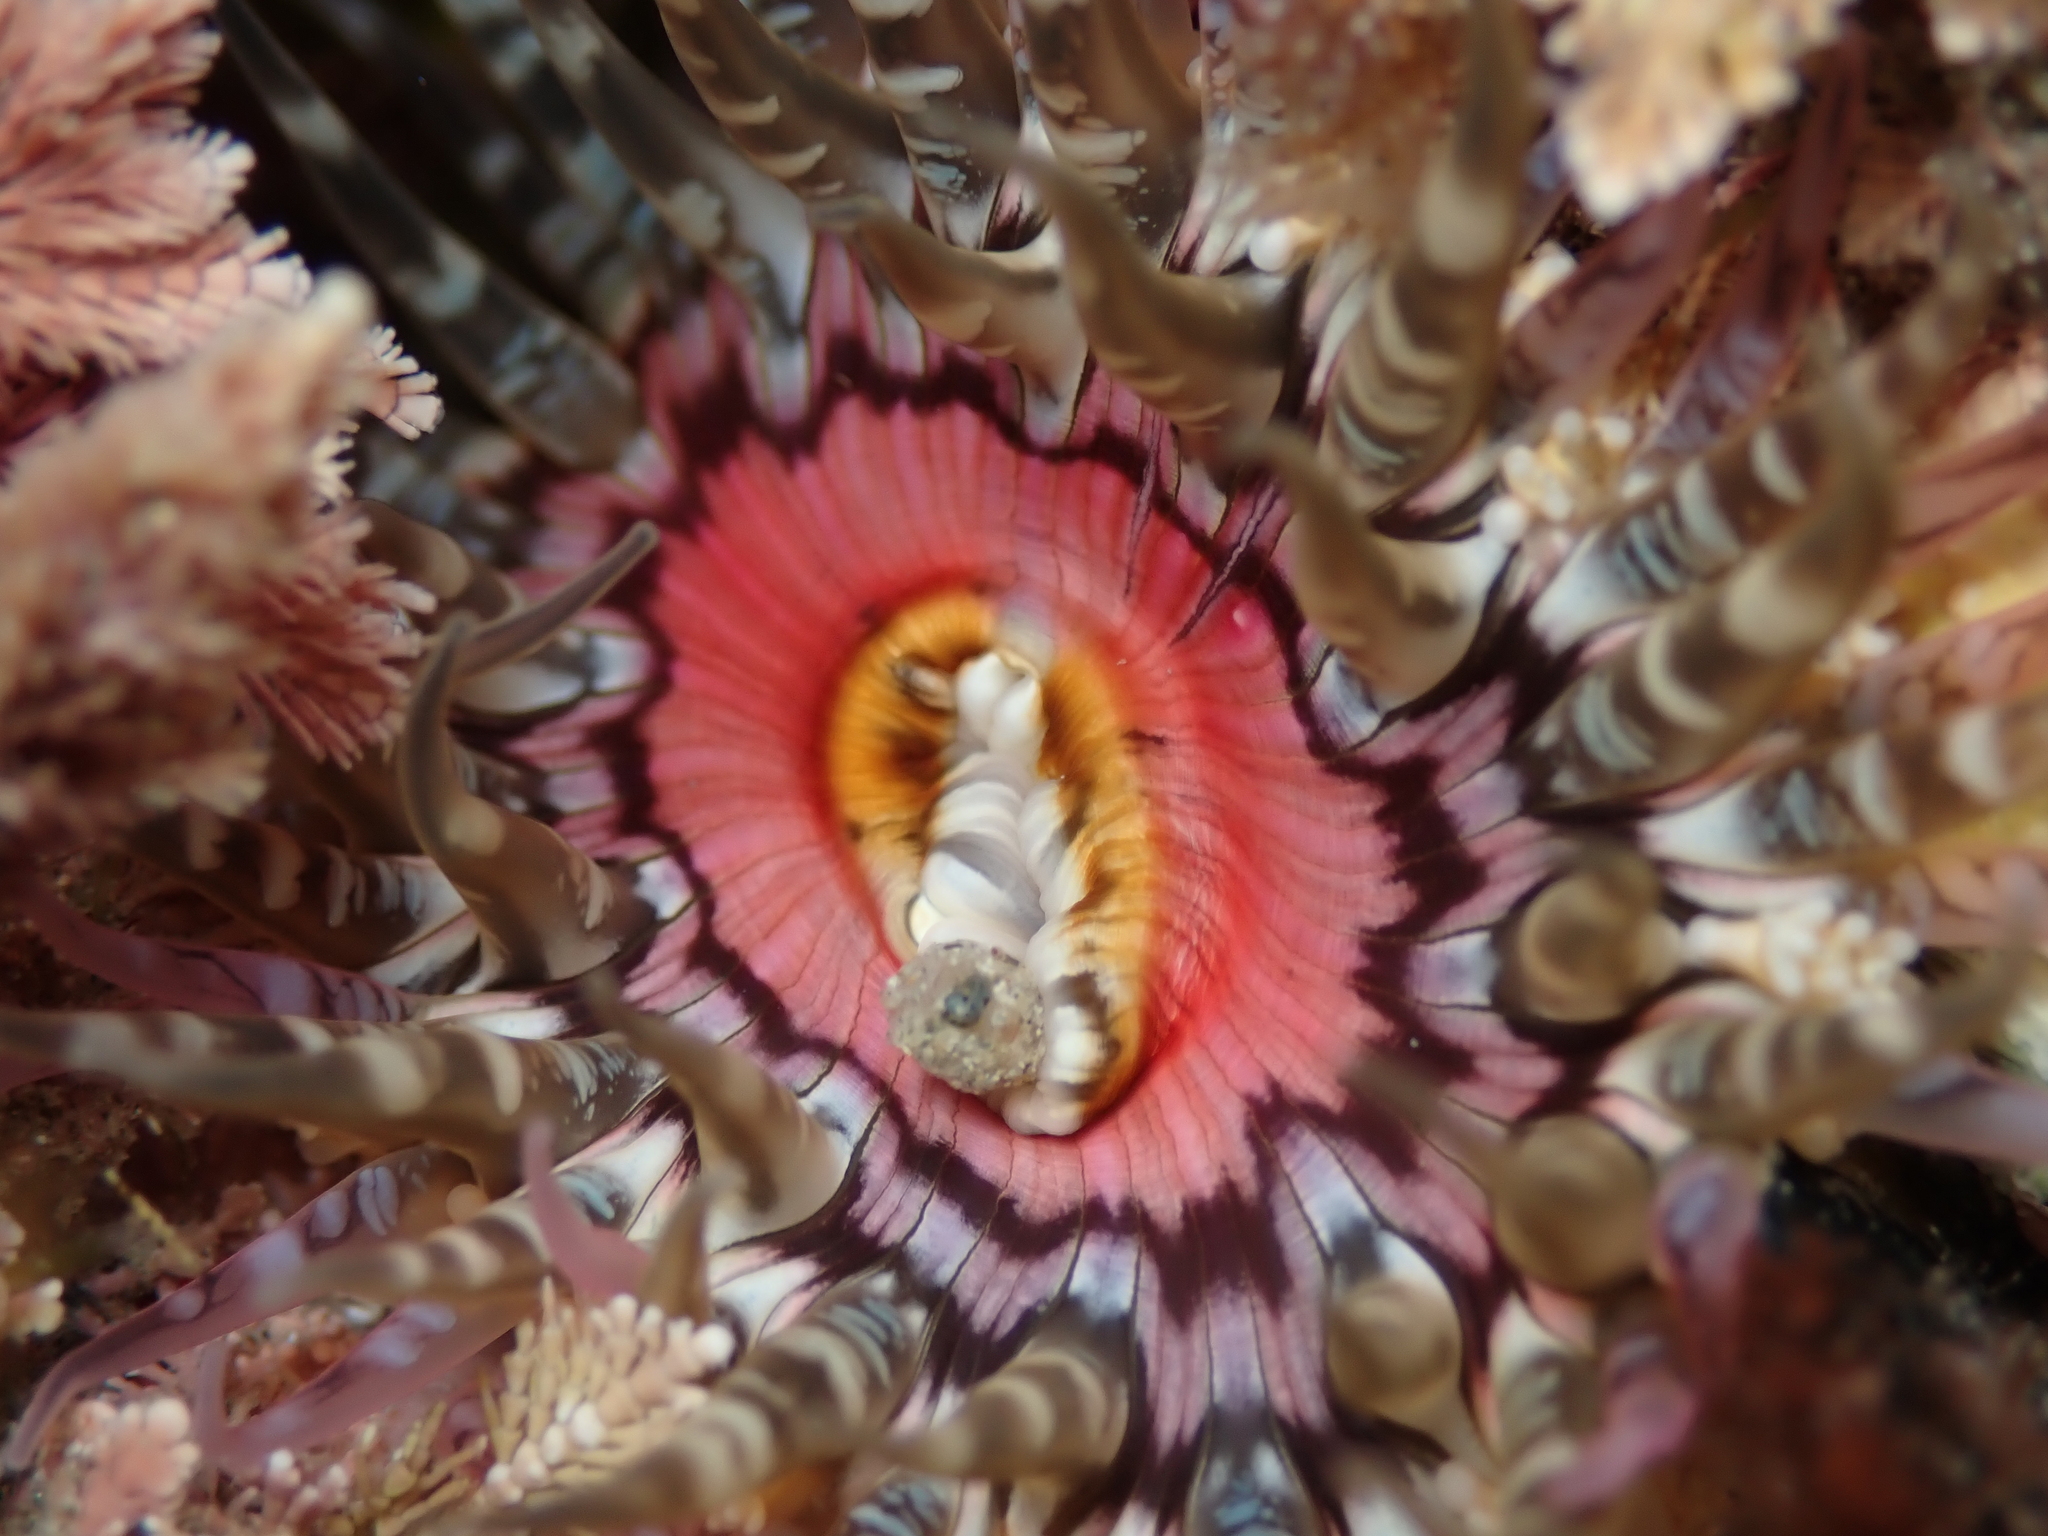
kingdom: Animalia
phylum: Cnidaria
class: Anthozoa
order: Actiniaria
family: Actiniidae
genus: Oulactis
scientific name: Oulactis muscosa
